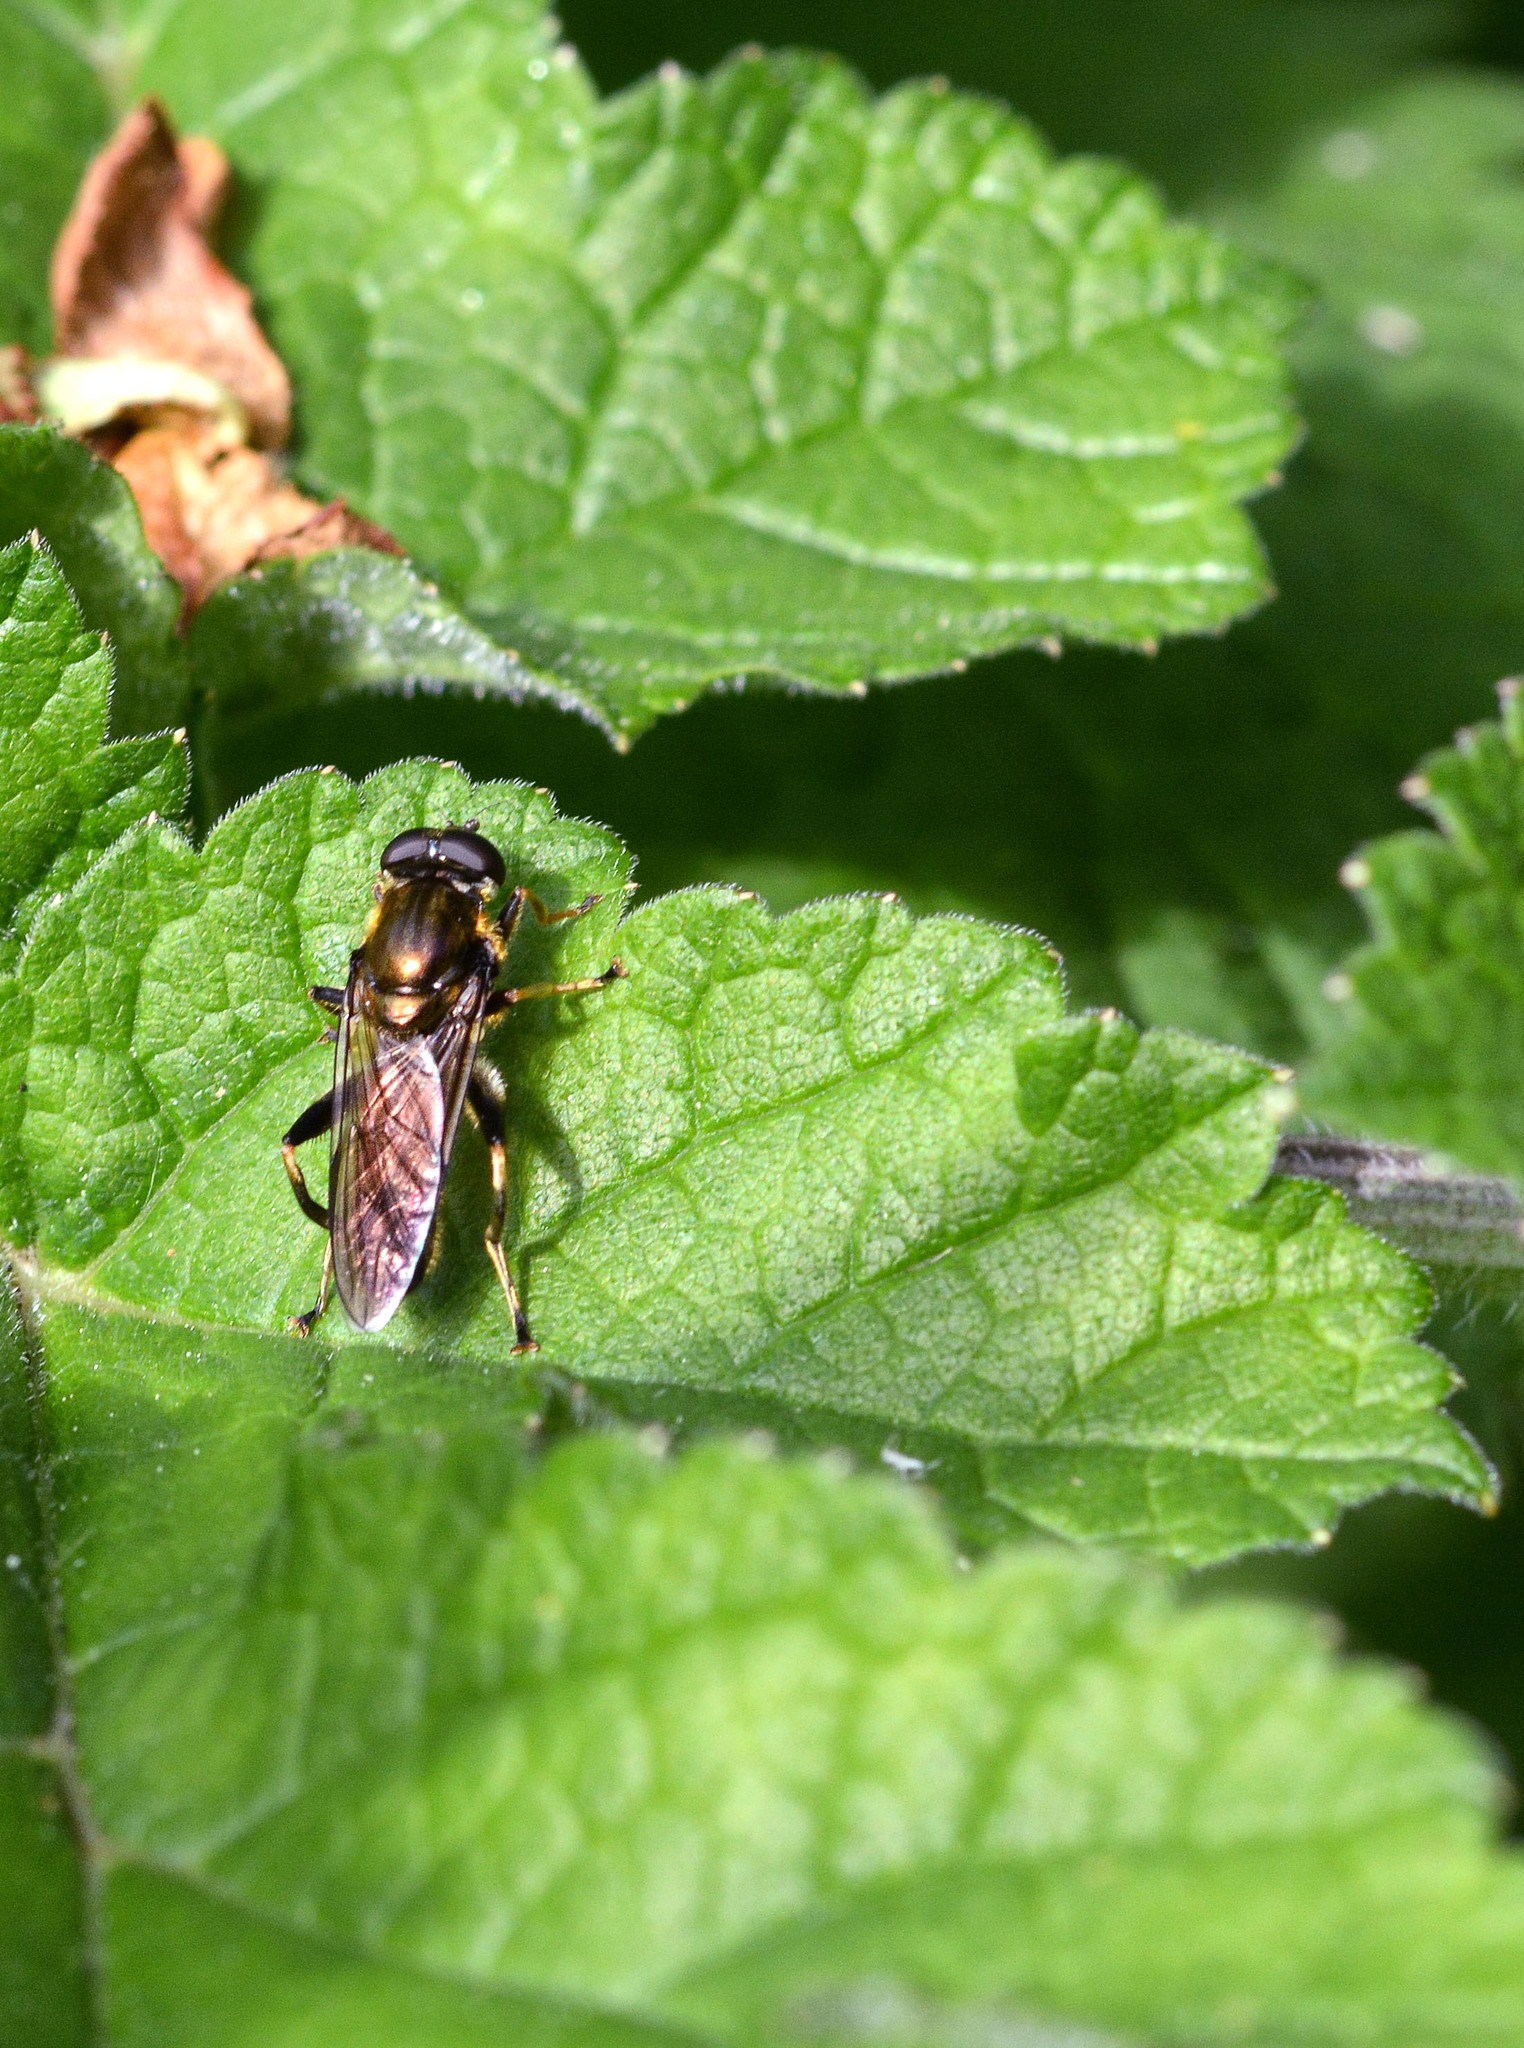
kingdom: Animalia
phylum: Arthropoda
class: Insecta
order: Diptera
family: Syrphidae
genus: Xylota
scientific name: Xylota
